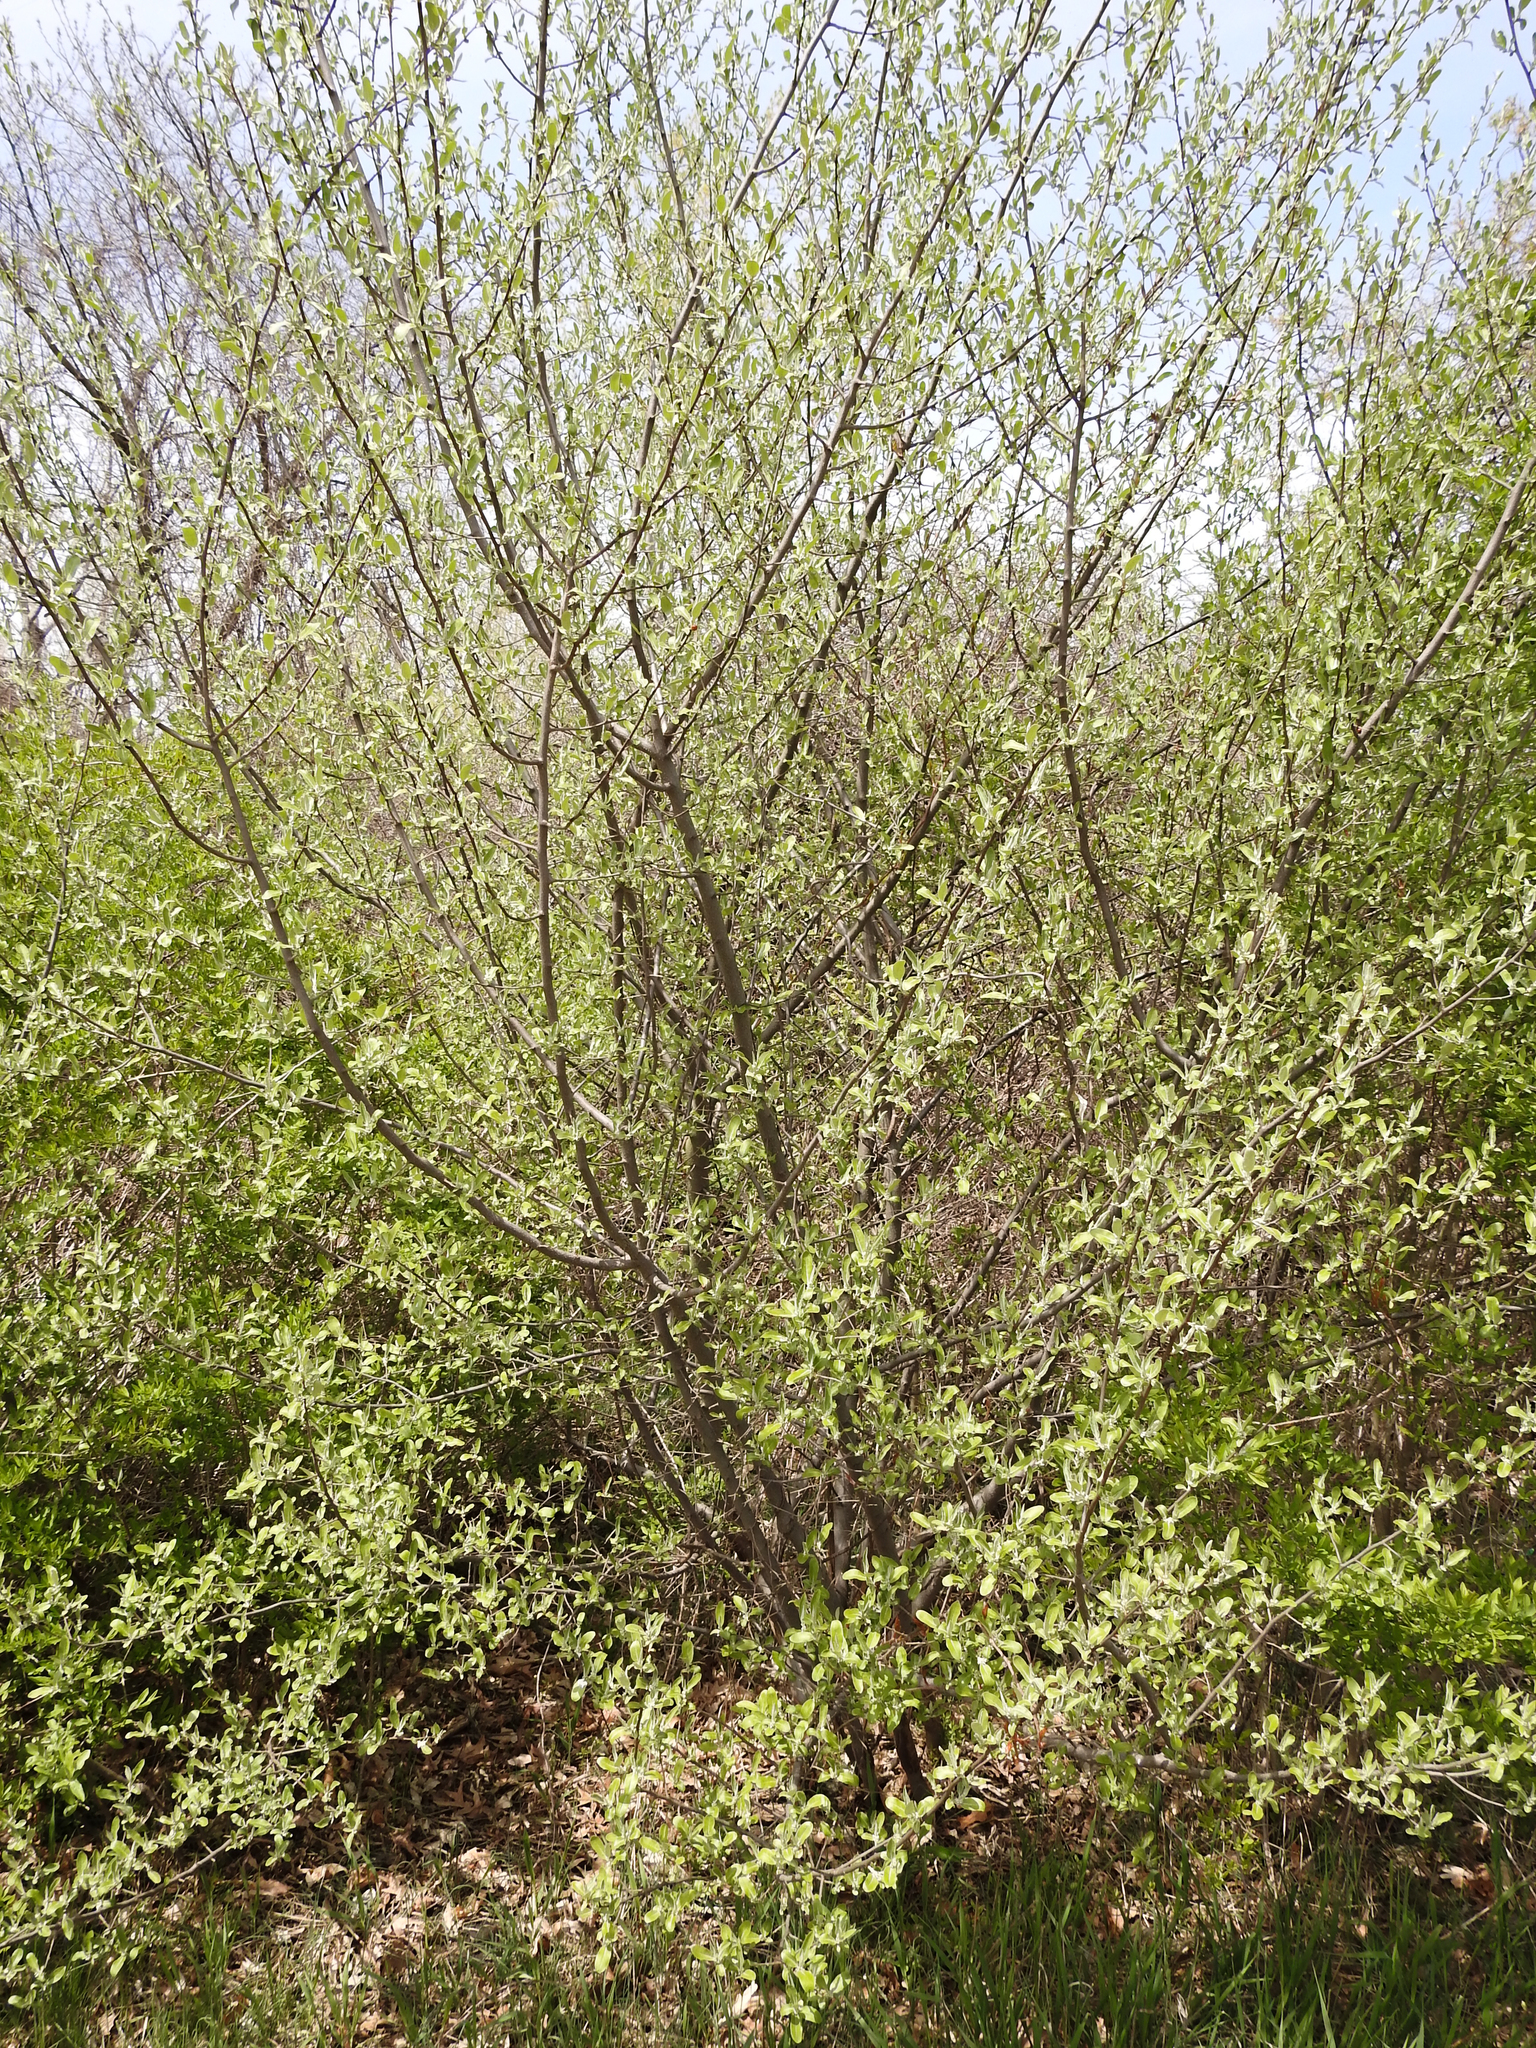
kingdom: Plantae
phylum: Tracheophyta
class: Magnoliopsida
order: Rosales
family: Elaeagnaceae
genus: Elaeagnus
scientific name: Elaeagnus umbellata
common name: Autumn olive
